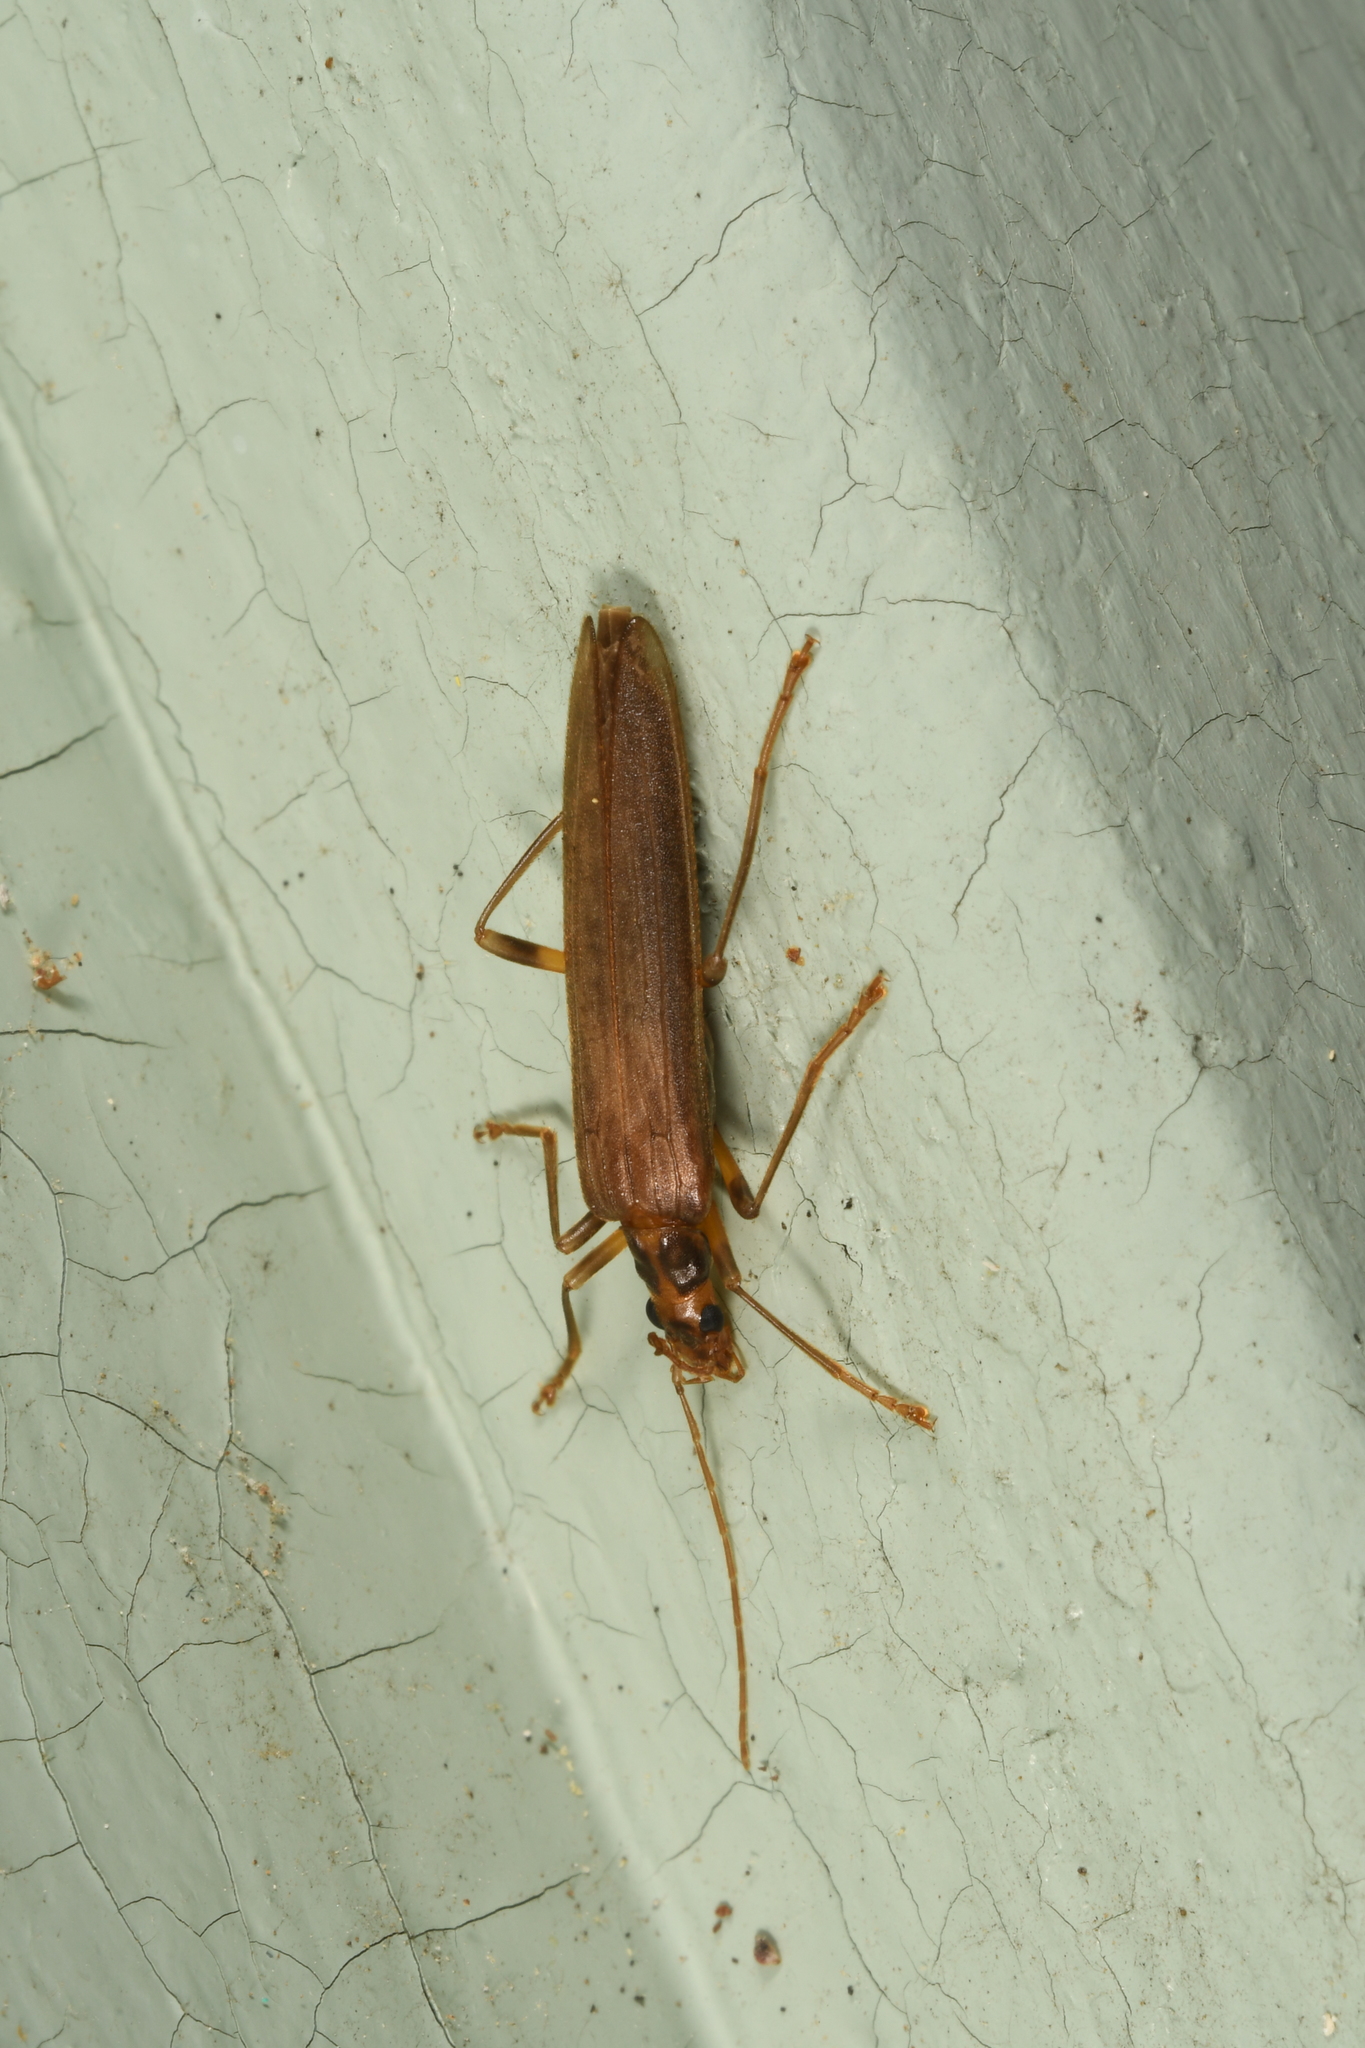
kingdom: Animalia
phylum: Arthropoda
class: Insecta
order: Coleoptera
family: Oedemeridae
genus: Oedemera
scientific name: Oedemera femoralis
